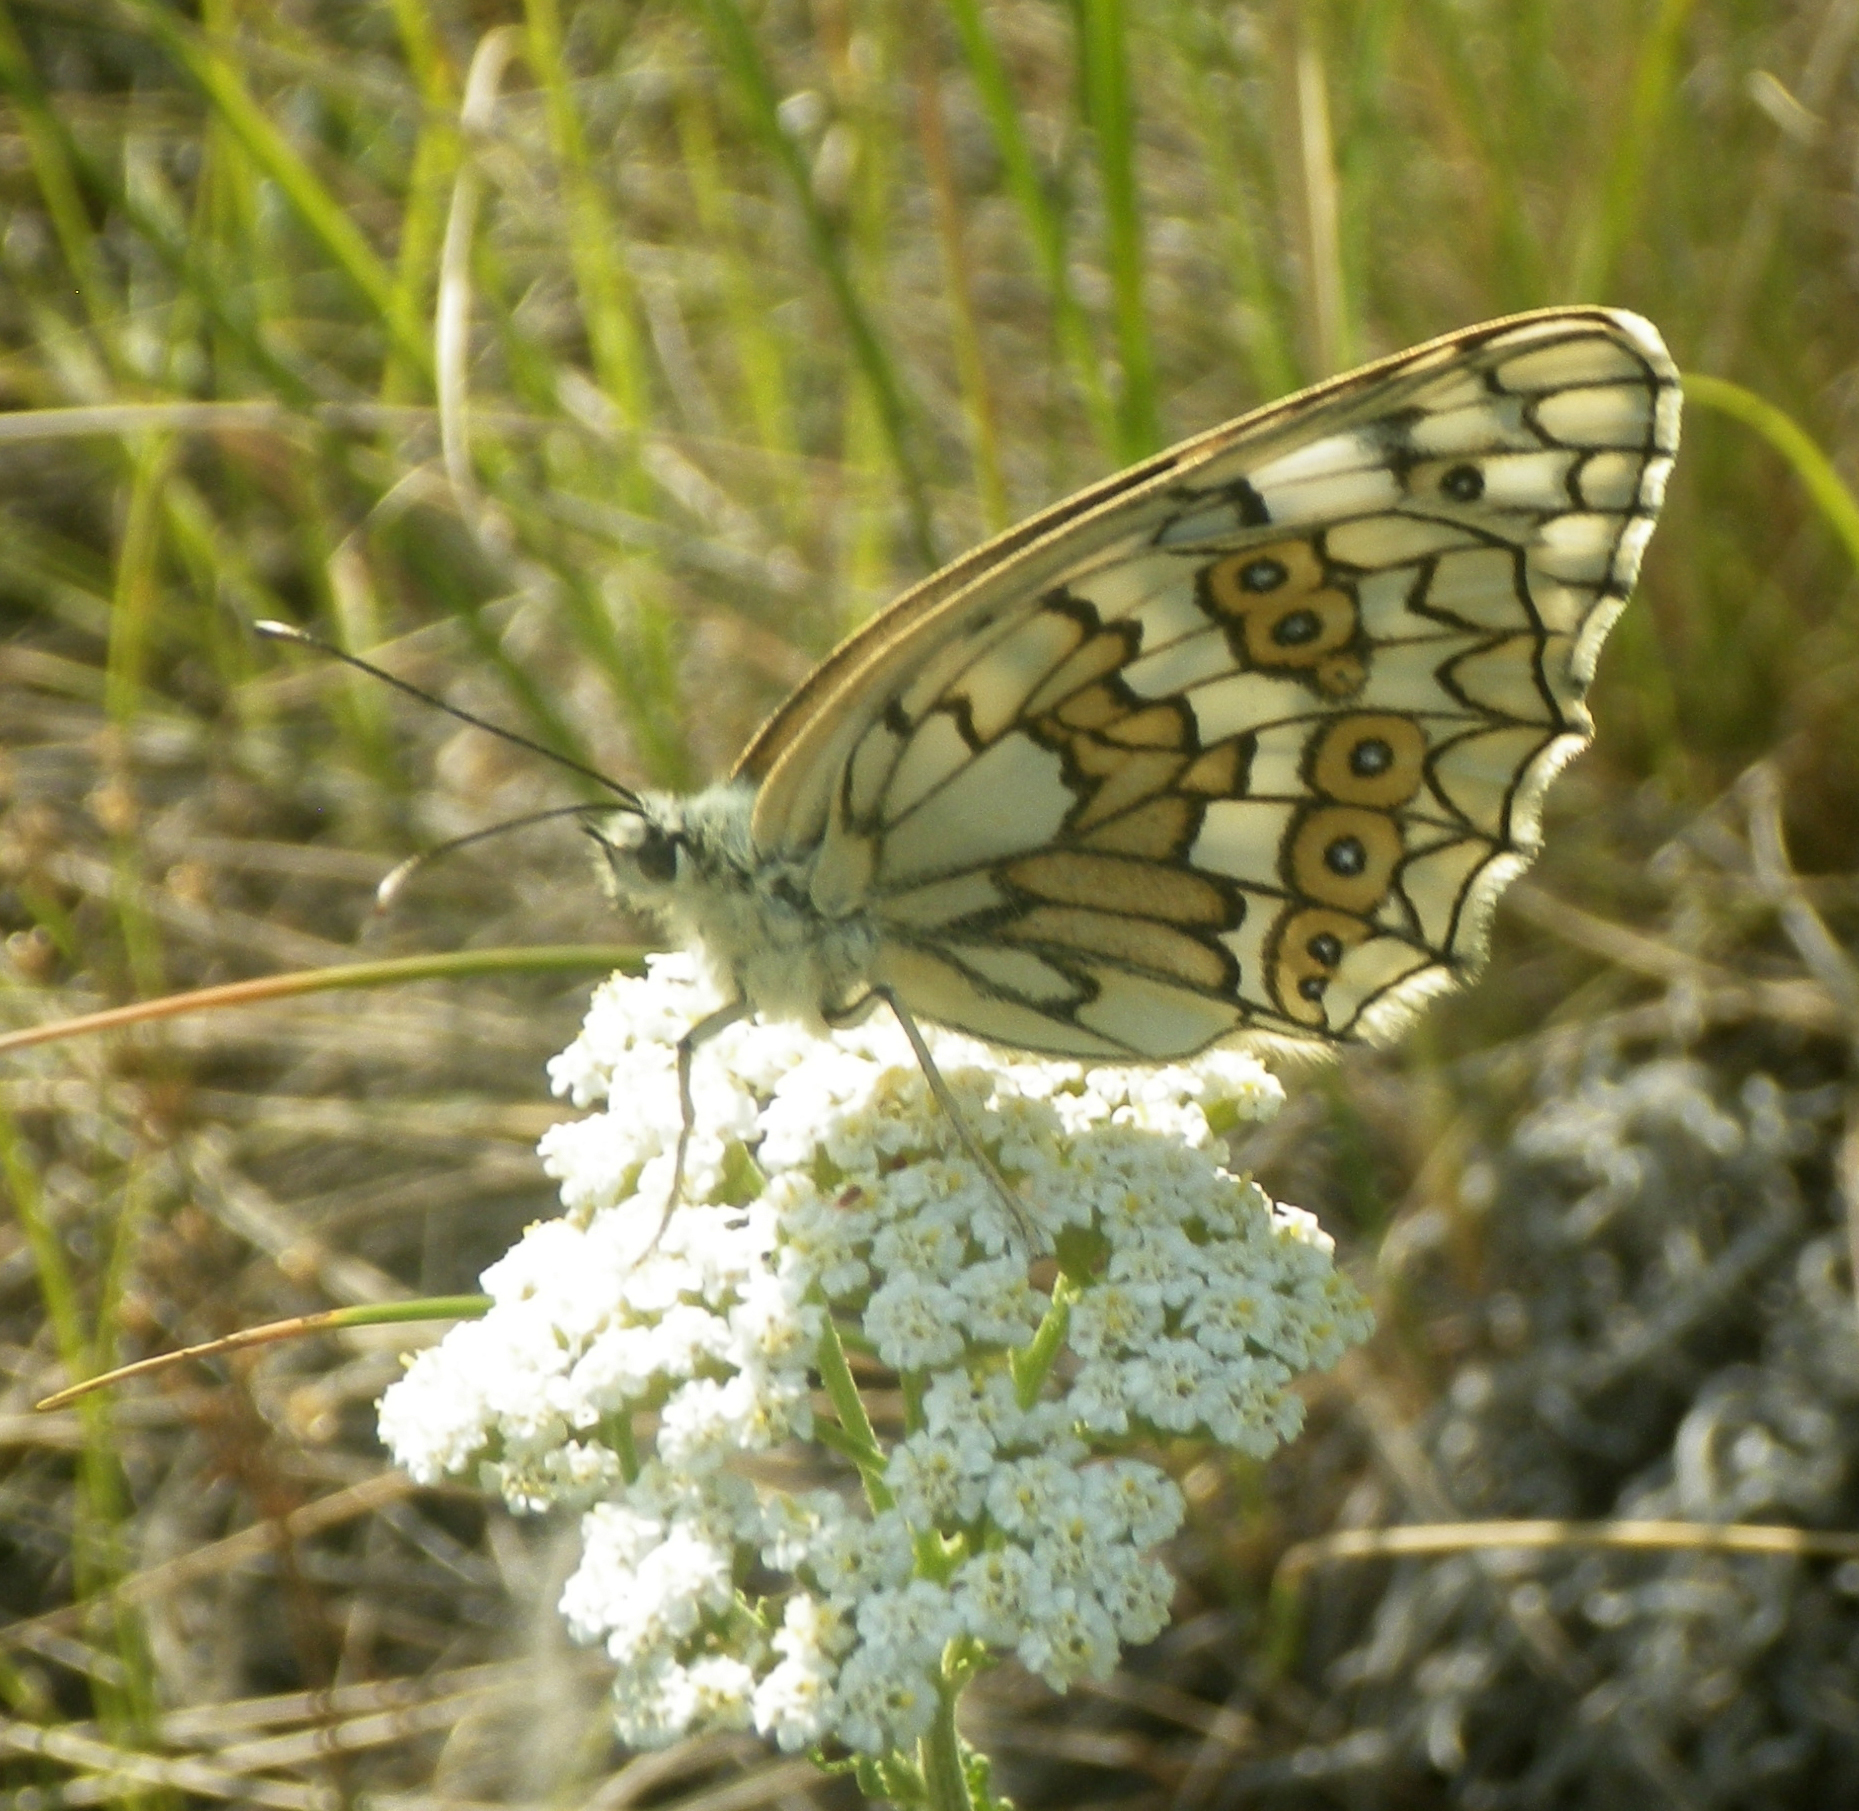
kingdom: Animalia
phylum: Arthropoda
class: Insecta
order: Lepidoptera
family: Nymphalidae
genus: Melanargia
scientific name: Melanargia japygia
